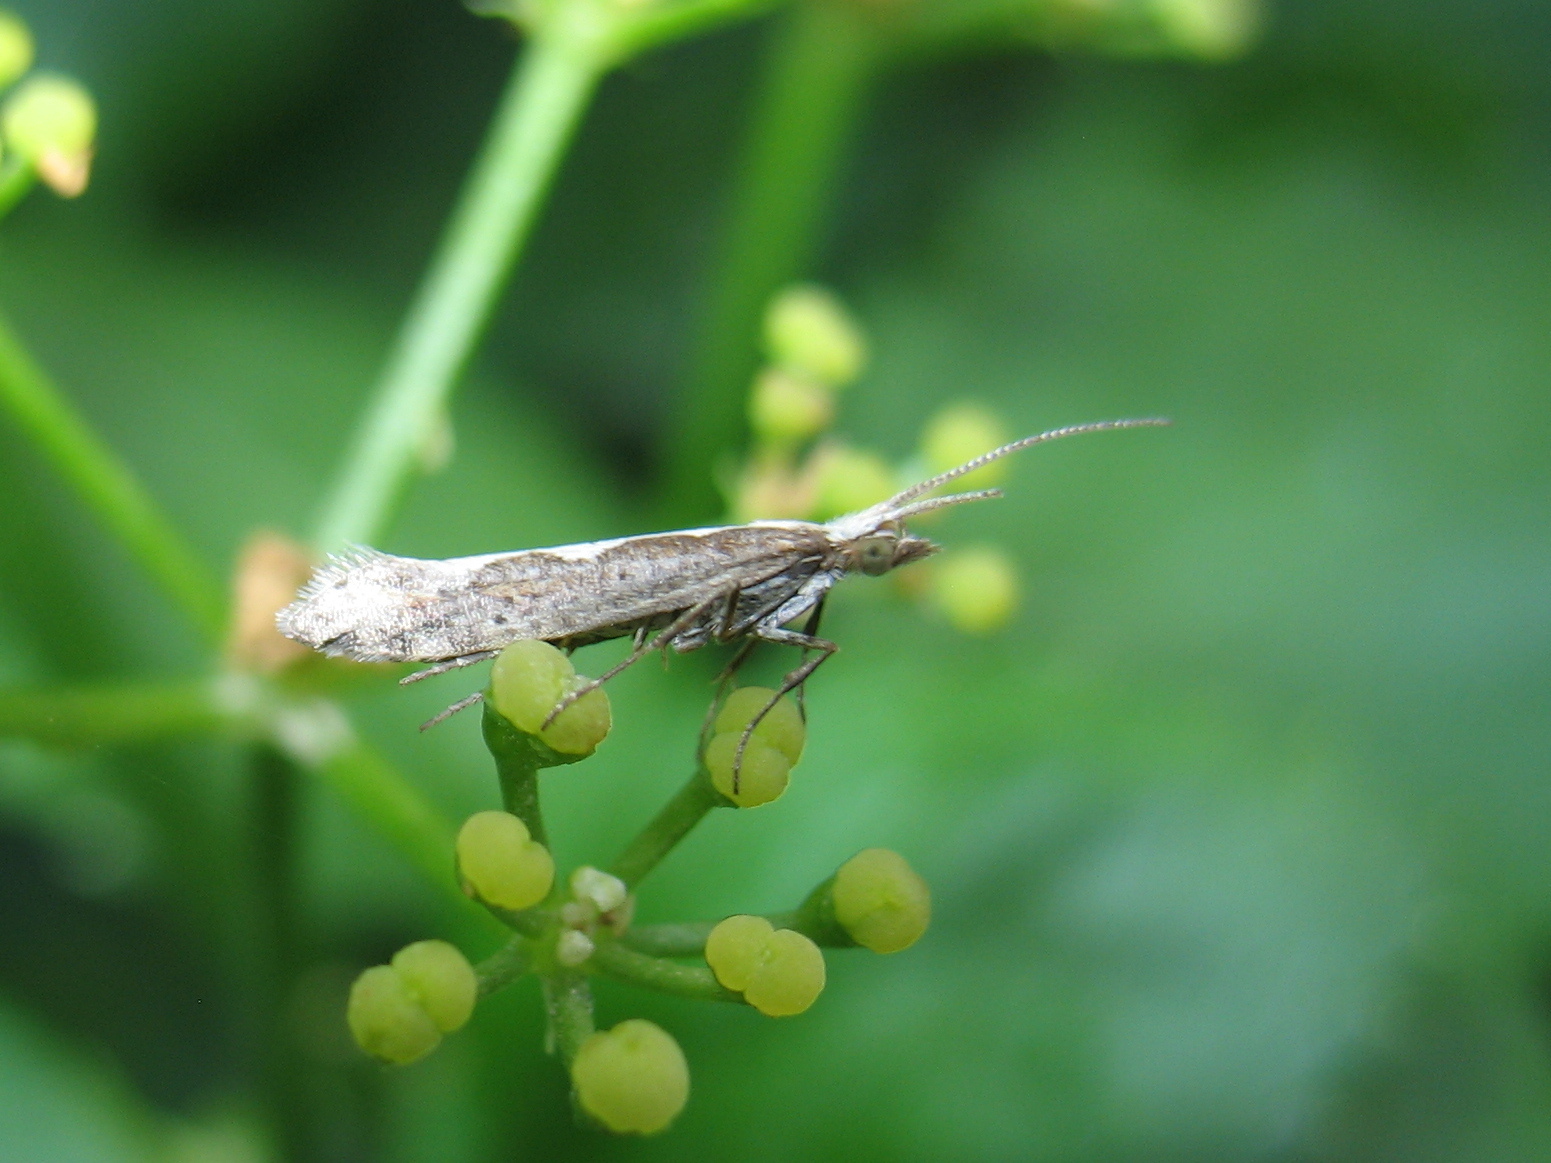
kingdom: Animalia
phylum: Arthropoda
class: Insecta
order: Lepidoptera
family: Plutellidae
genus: Plutella
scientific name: Plutella xylostella
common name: Diamond-back moth
